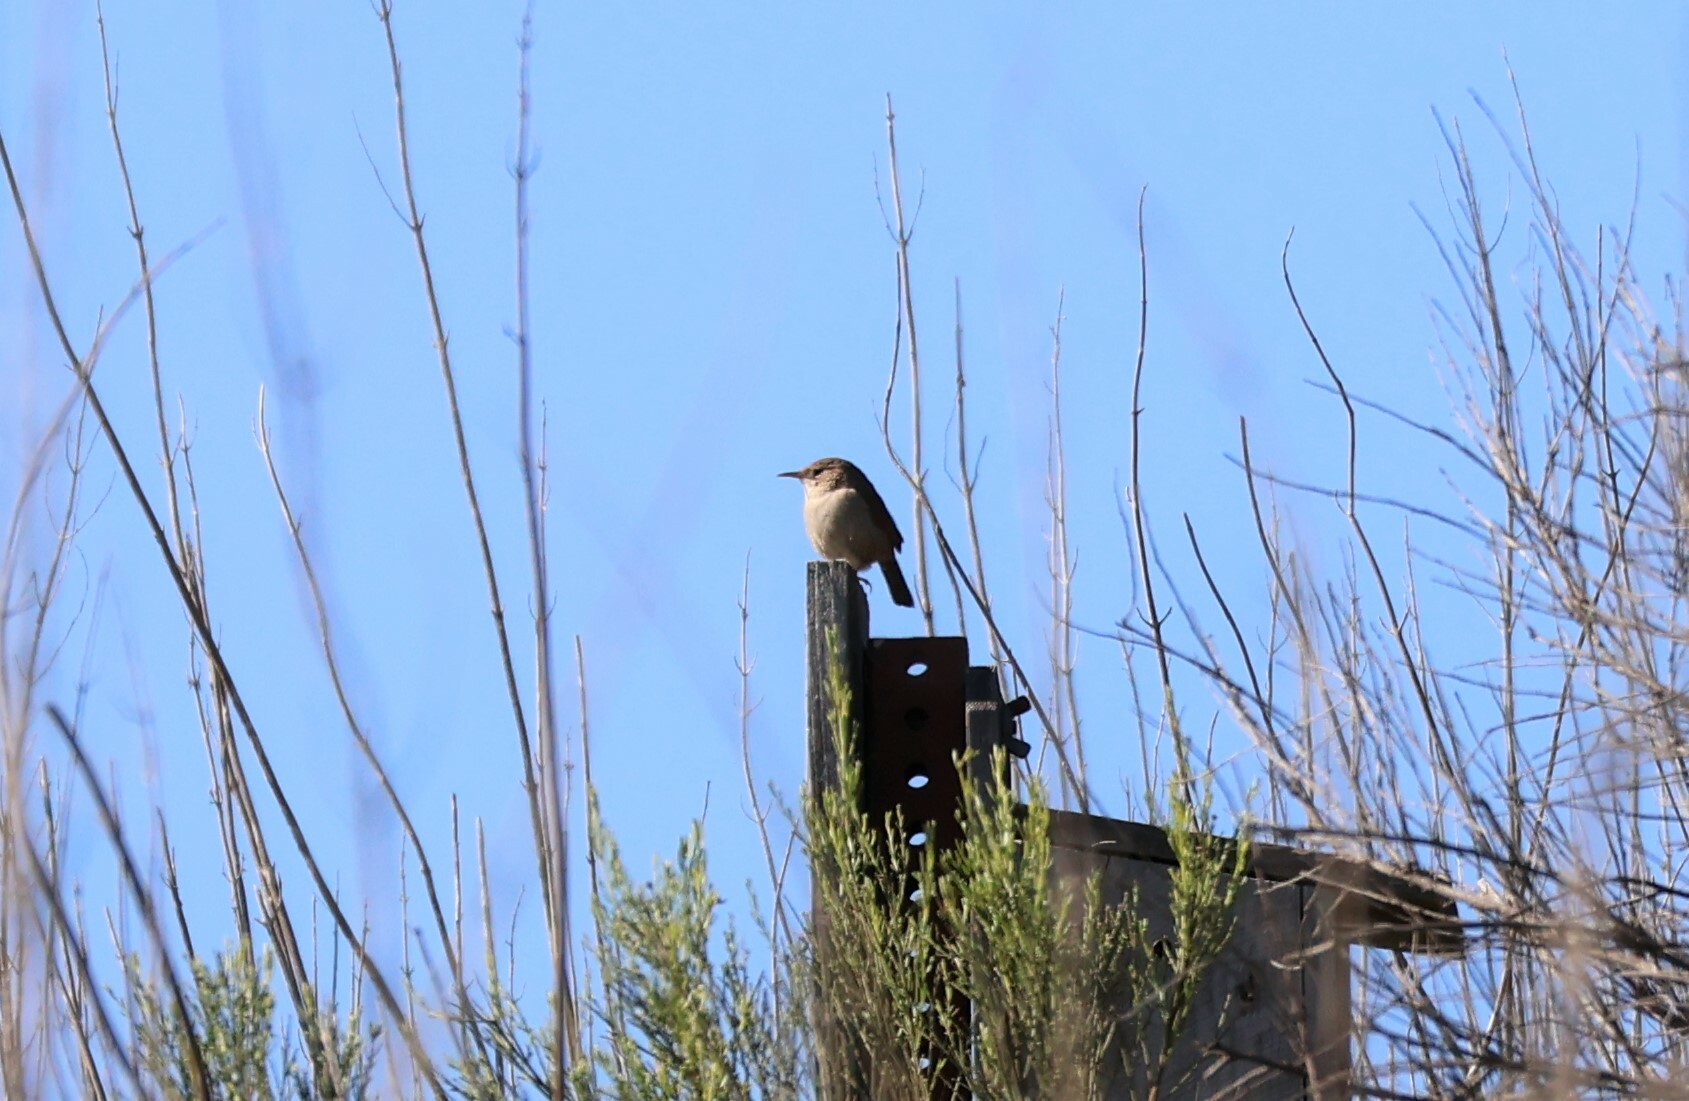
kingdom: Animalia
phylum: Chordata
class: Aves
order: Passeriformes
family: Troglodytidae
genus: Troglodytes
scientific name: Troglodytes aedon
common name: House wren
